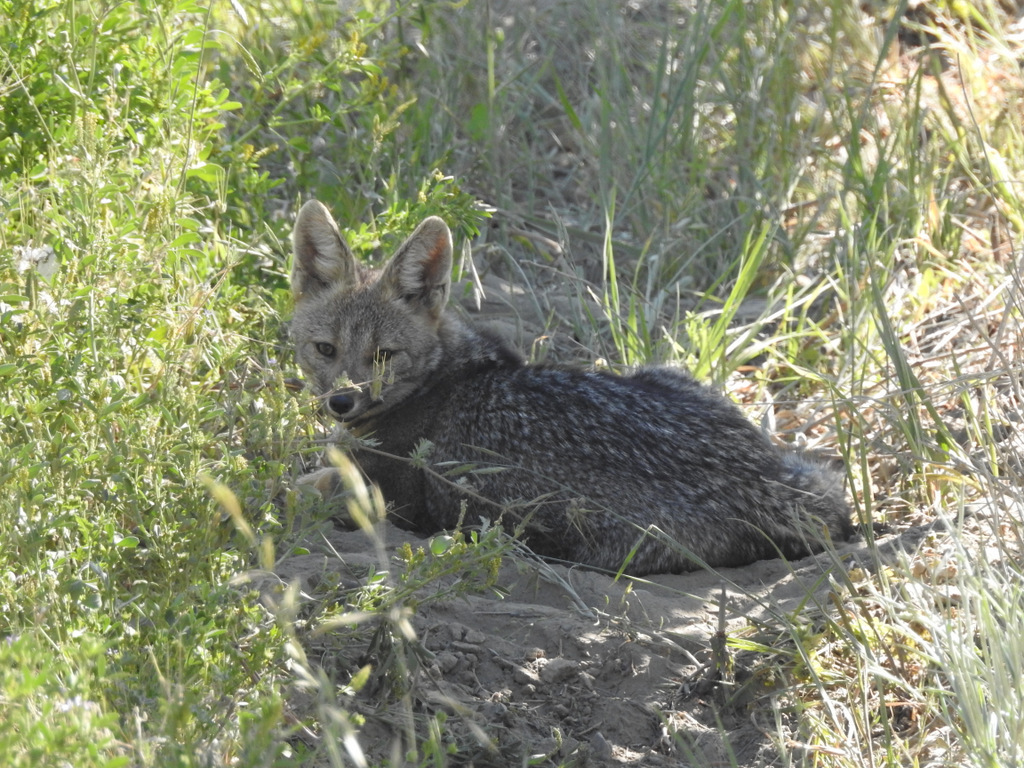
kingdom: Animalia
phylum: Chordata
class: Mammalia
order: Carnivora
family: Canidae
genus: Lycalopex
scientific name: Lycalopex gymnocercus
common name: Pampas fox
